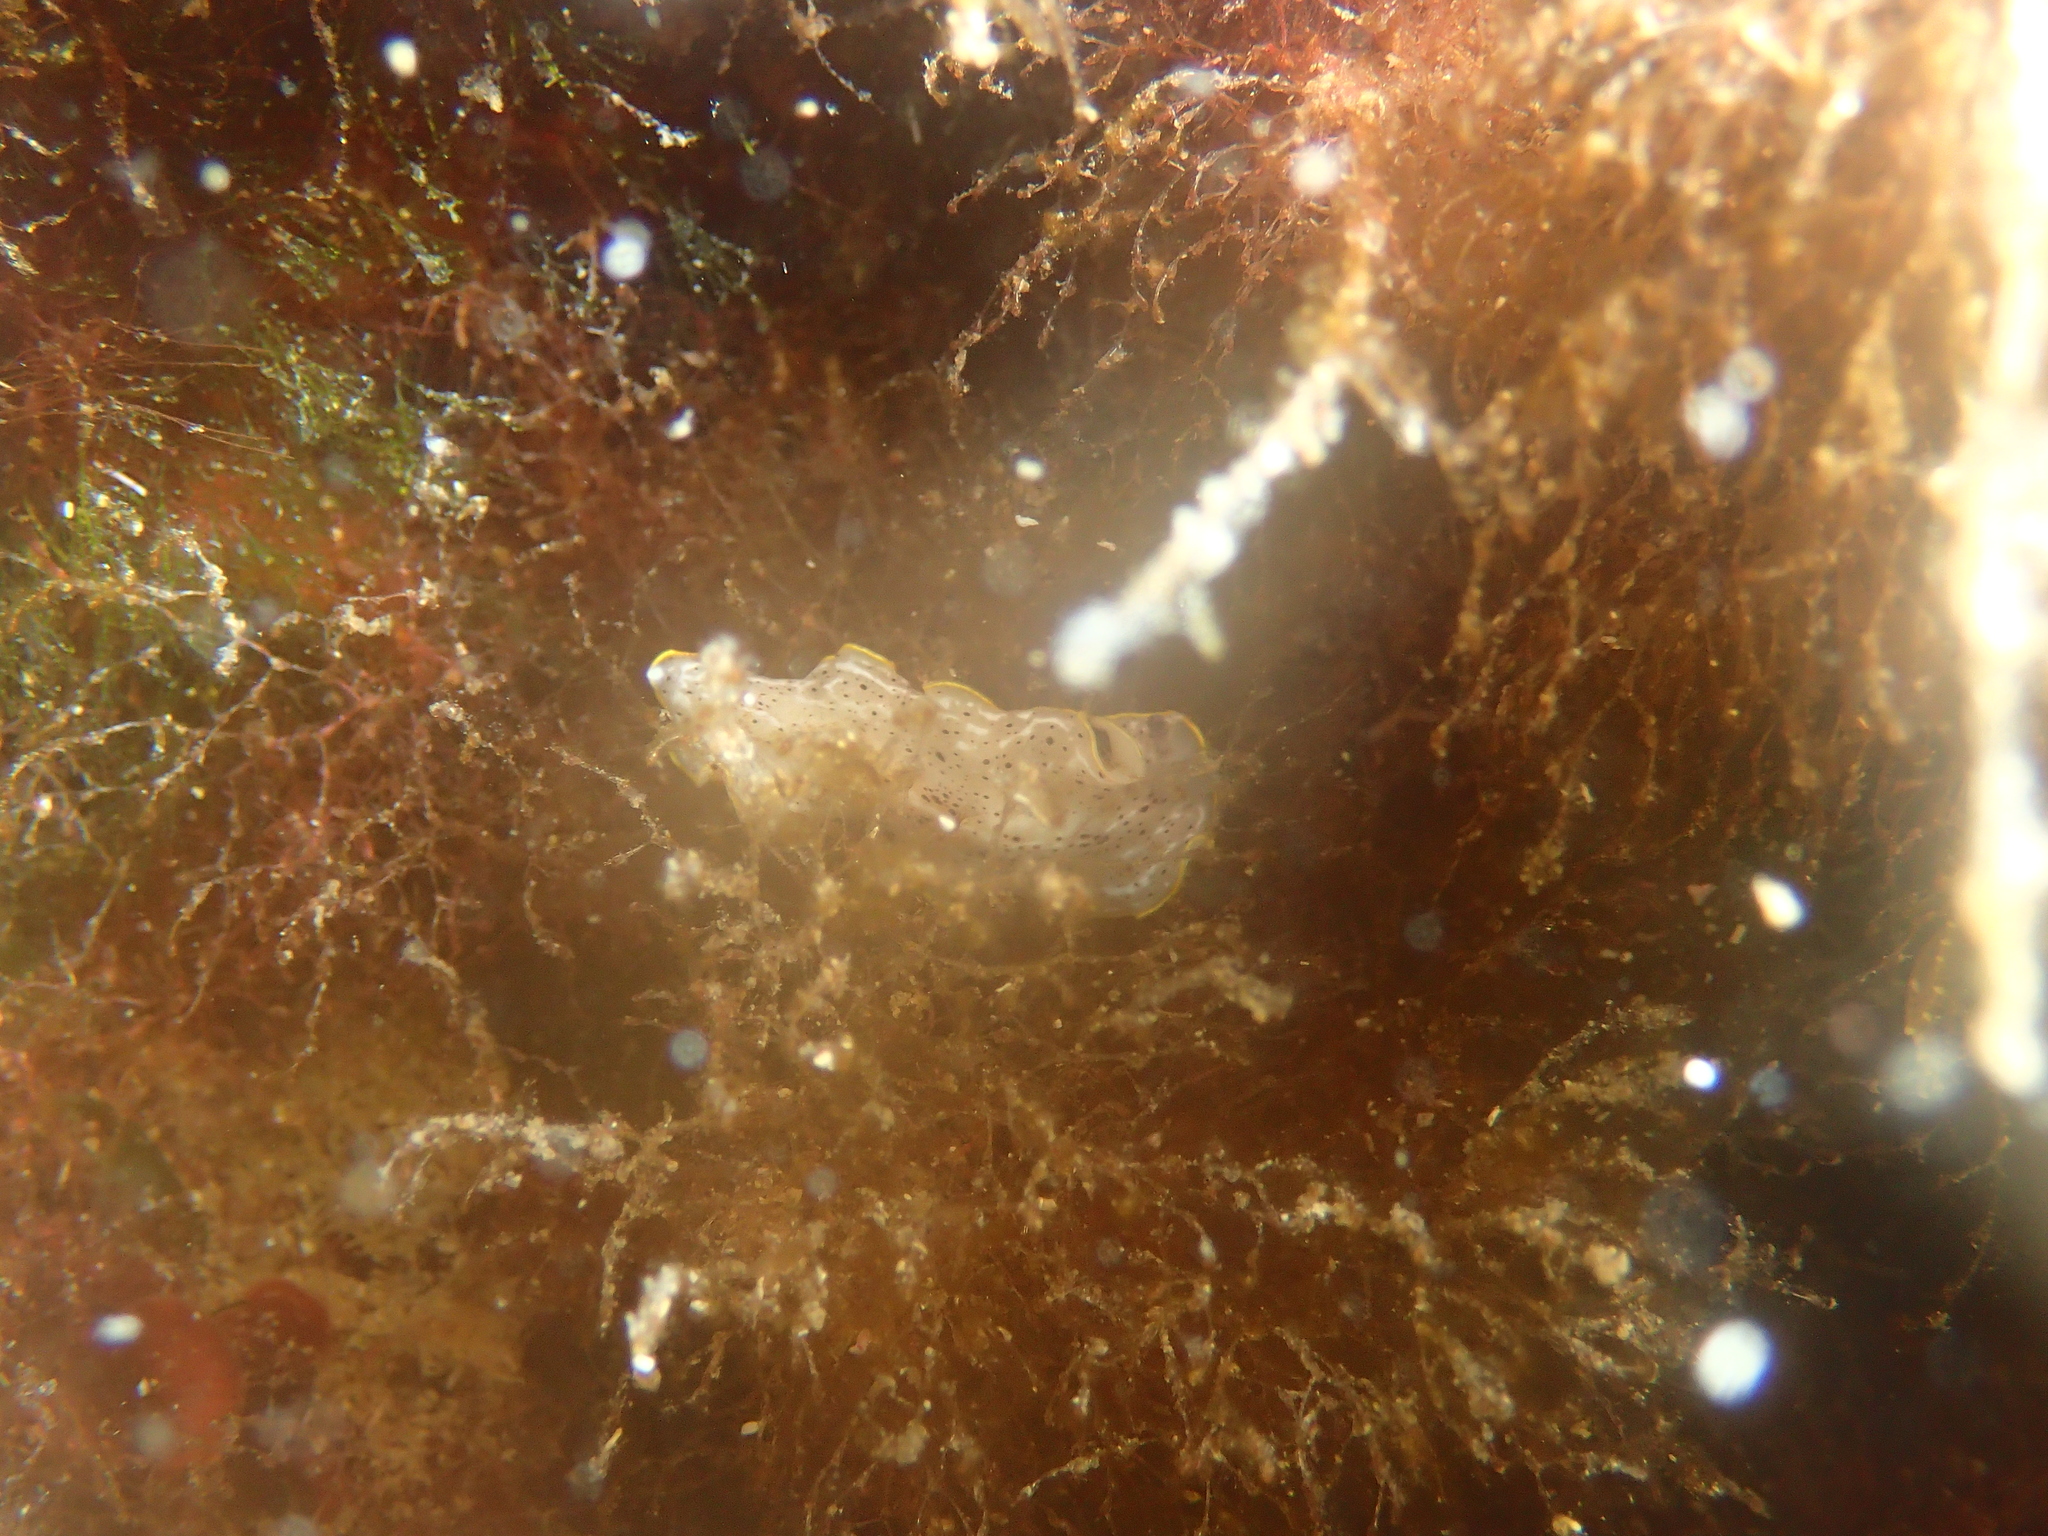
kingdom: Animalia
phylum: Platyhelminthes
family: Euryleptidae
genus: Prostheceraeus
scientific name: Prostheceraeus moseleyi
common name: Moseley's flatworm
